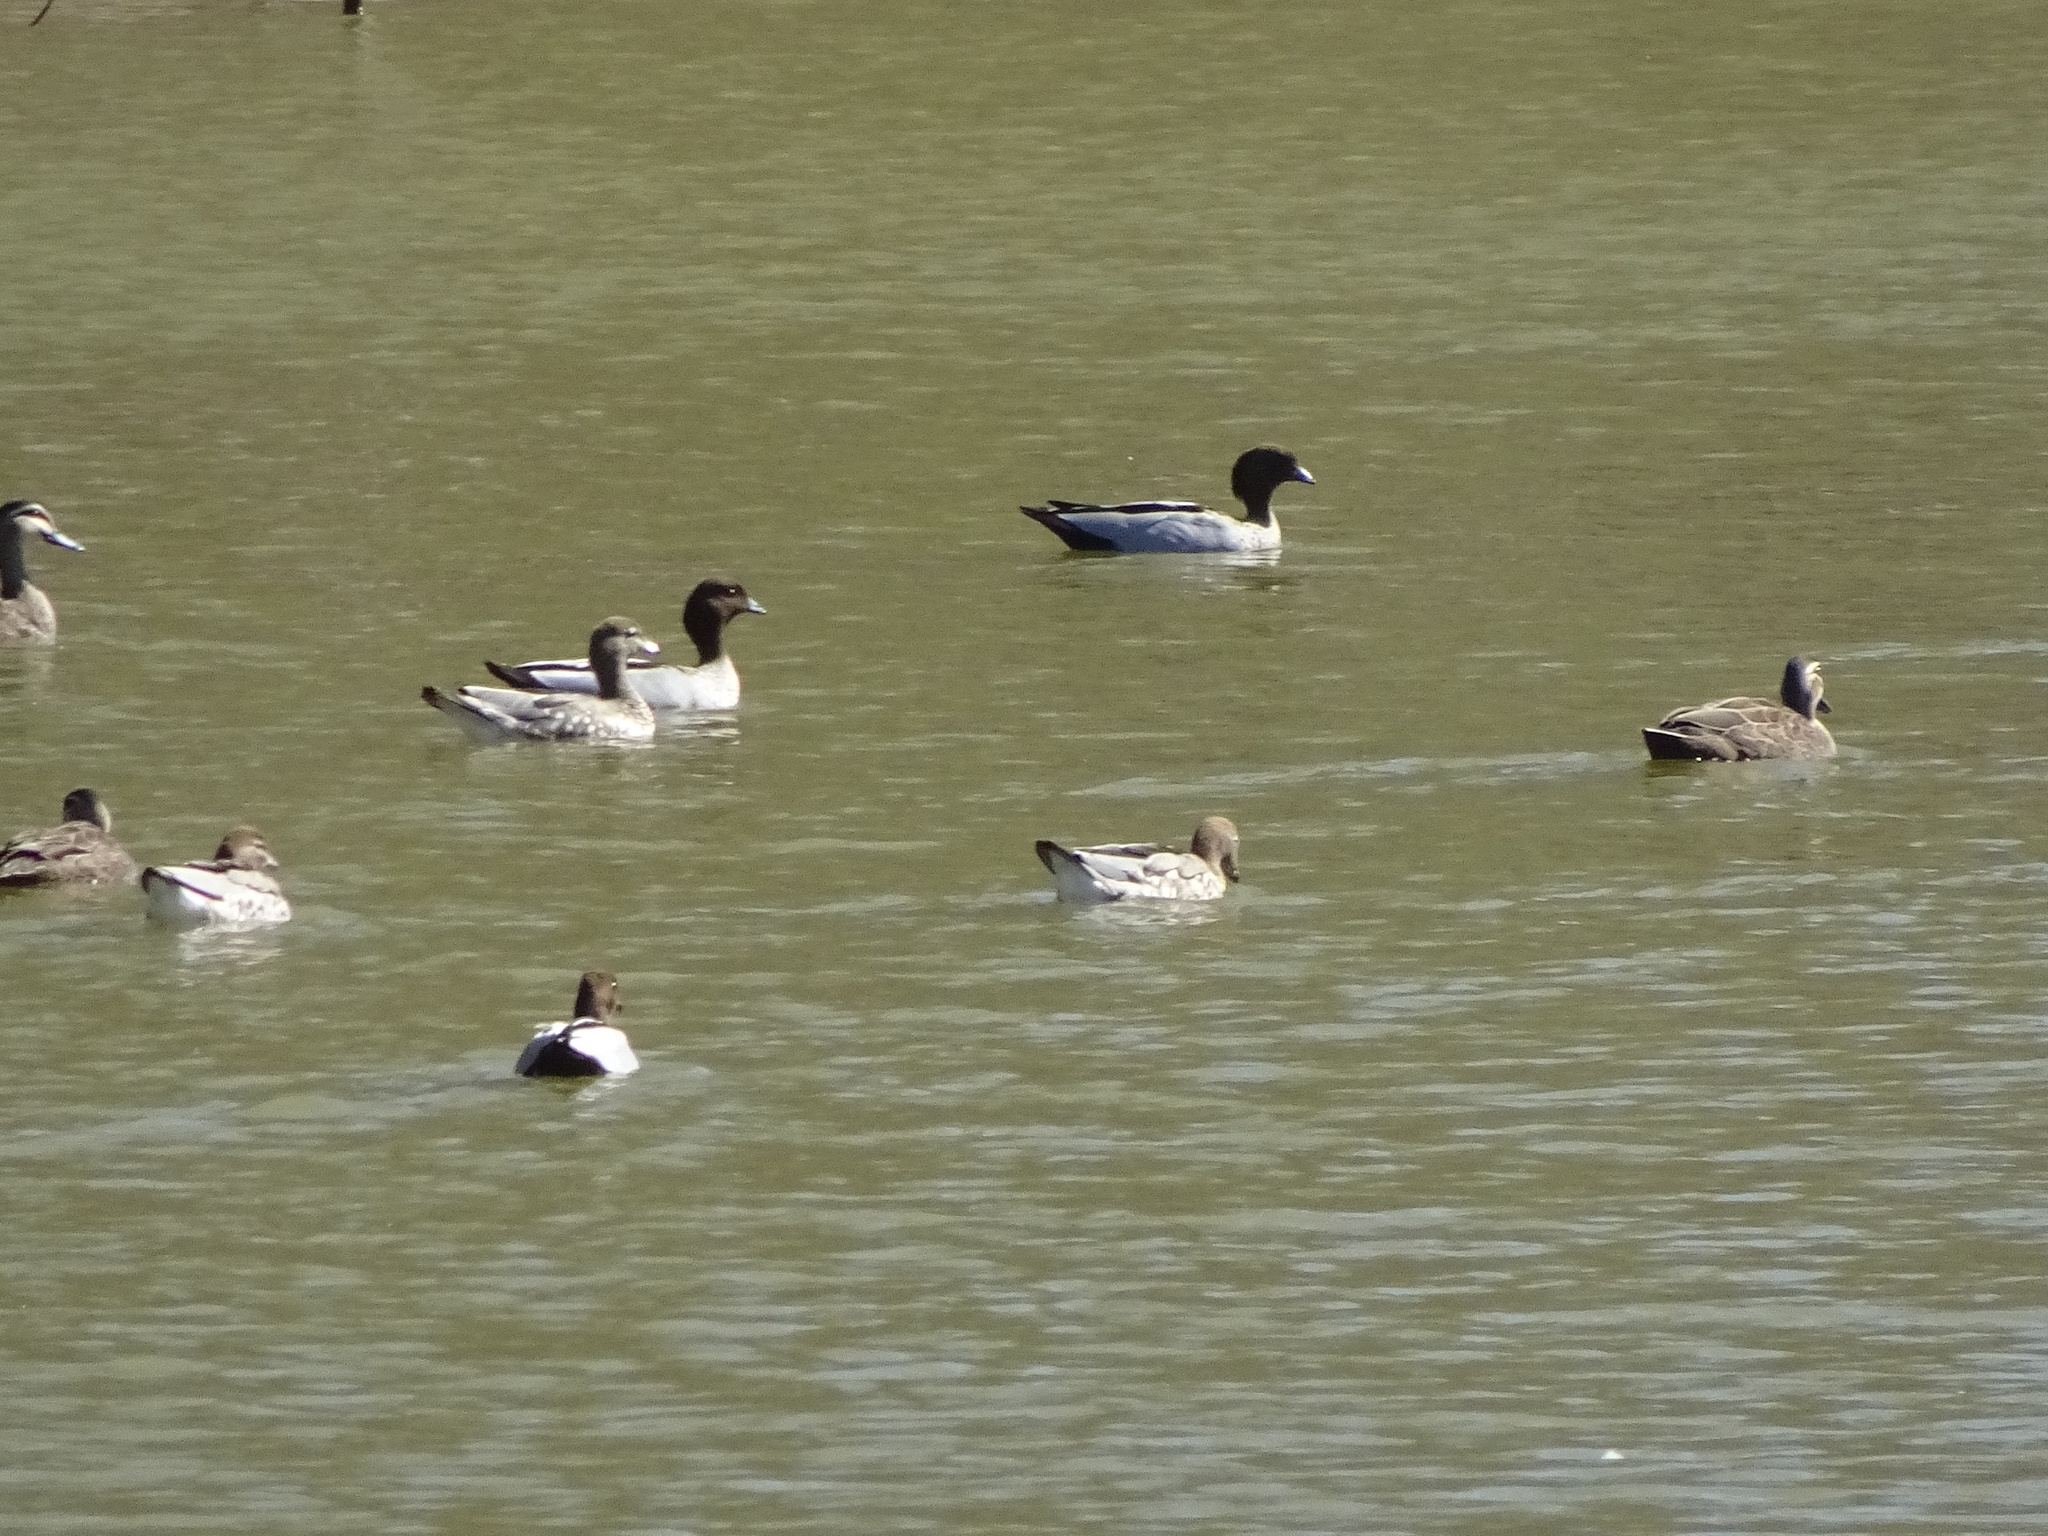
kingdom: Animalia
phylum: Chordata
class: Aves
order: Anseriformes
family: Anatidae
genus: Chenonetta
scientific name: Chenonetta jubata
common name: Maned duck
